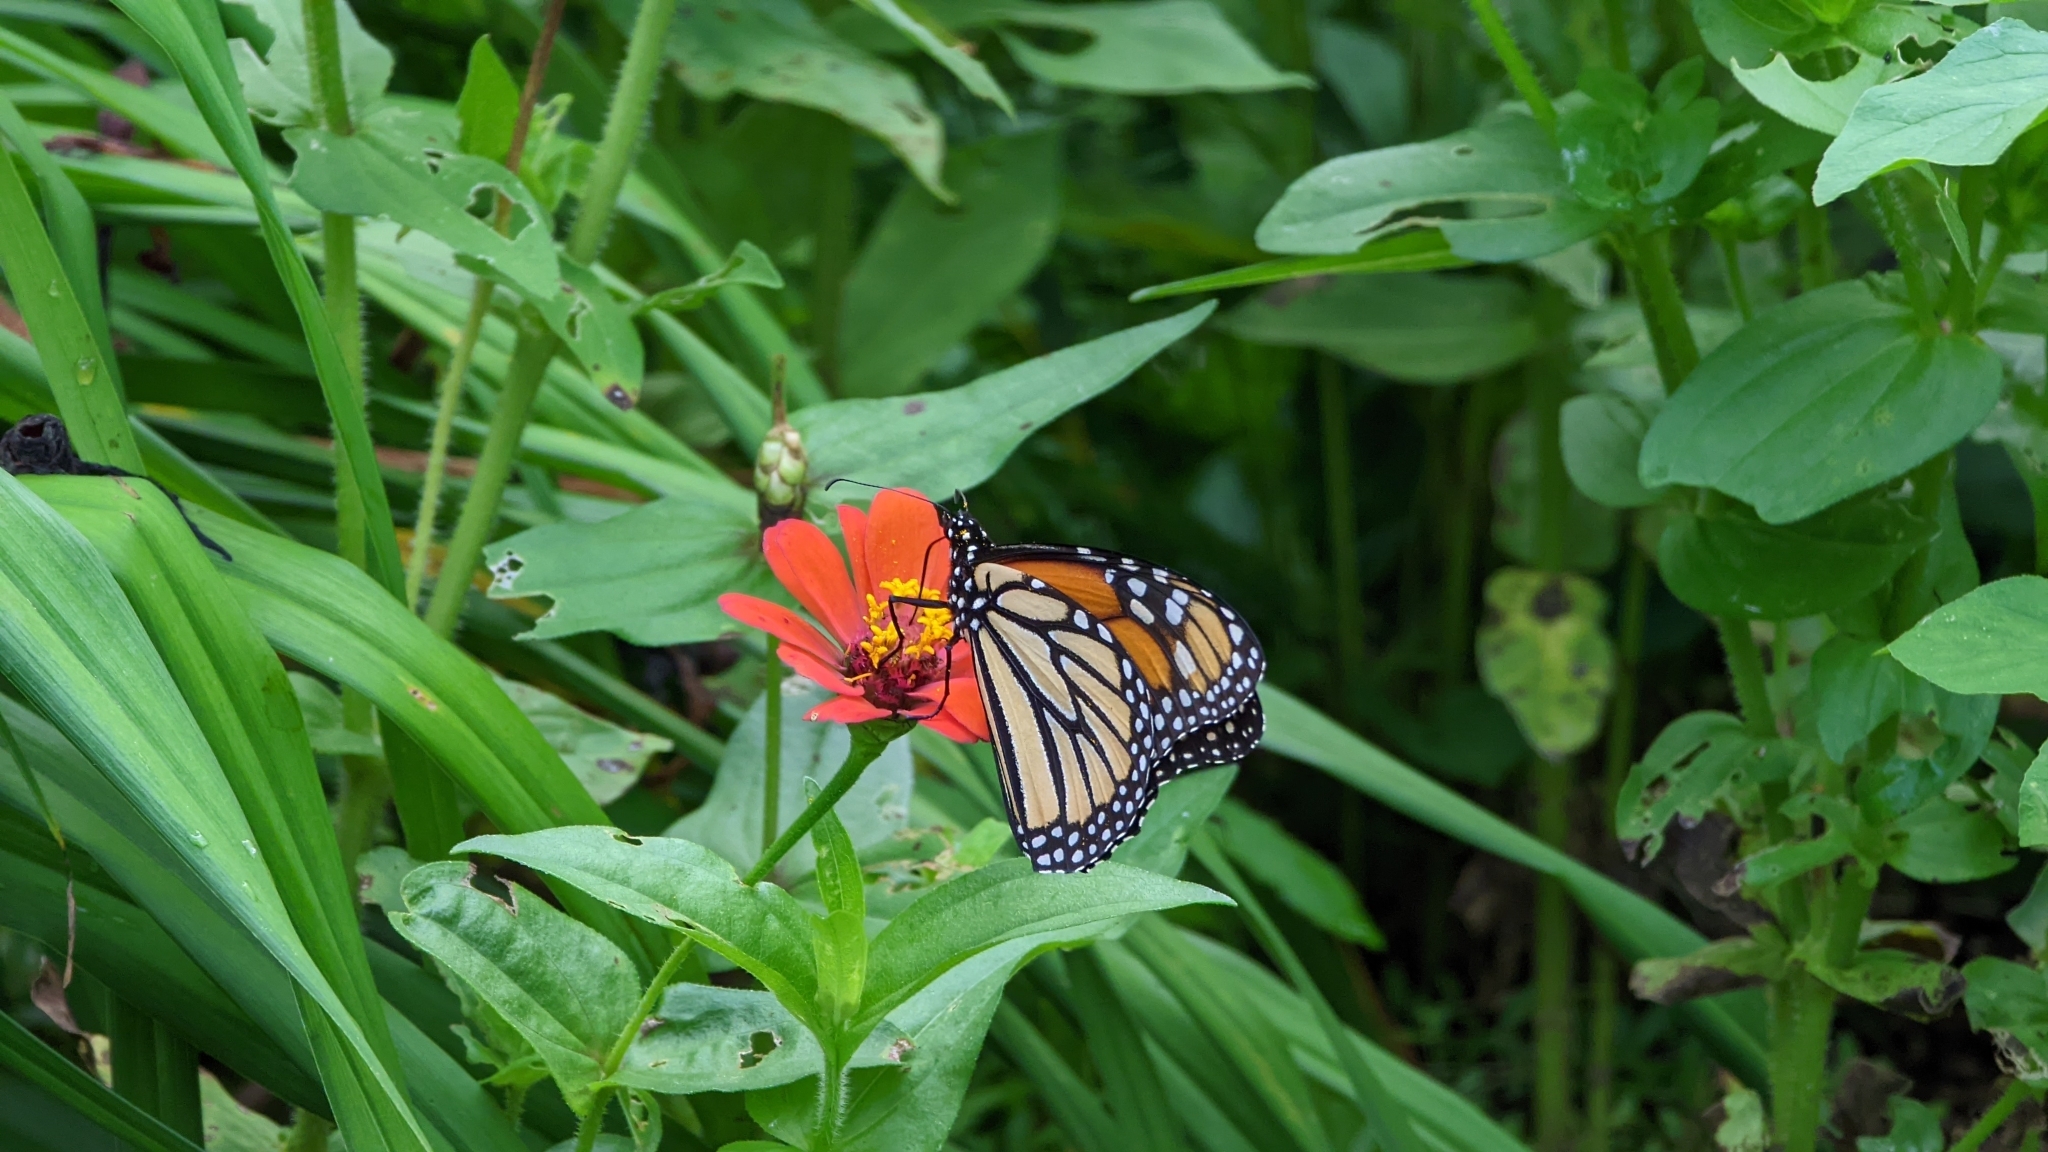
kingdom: Animalia
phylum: Arthropoda
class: Insecta
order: Lepidoptera
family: Nymphalidae
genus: Danaus
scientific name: Danaus plexippus
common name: Monarch
